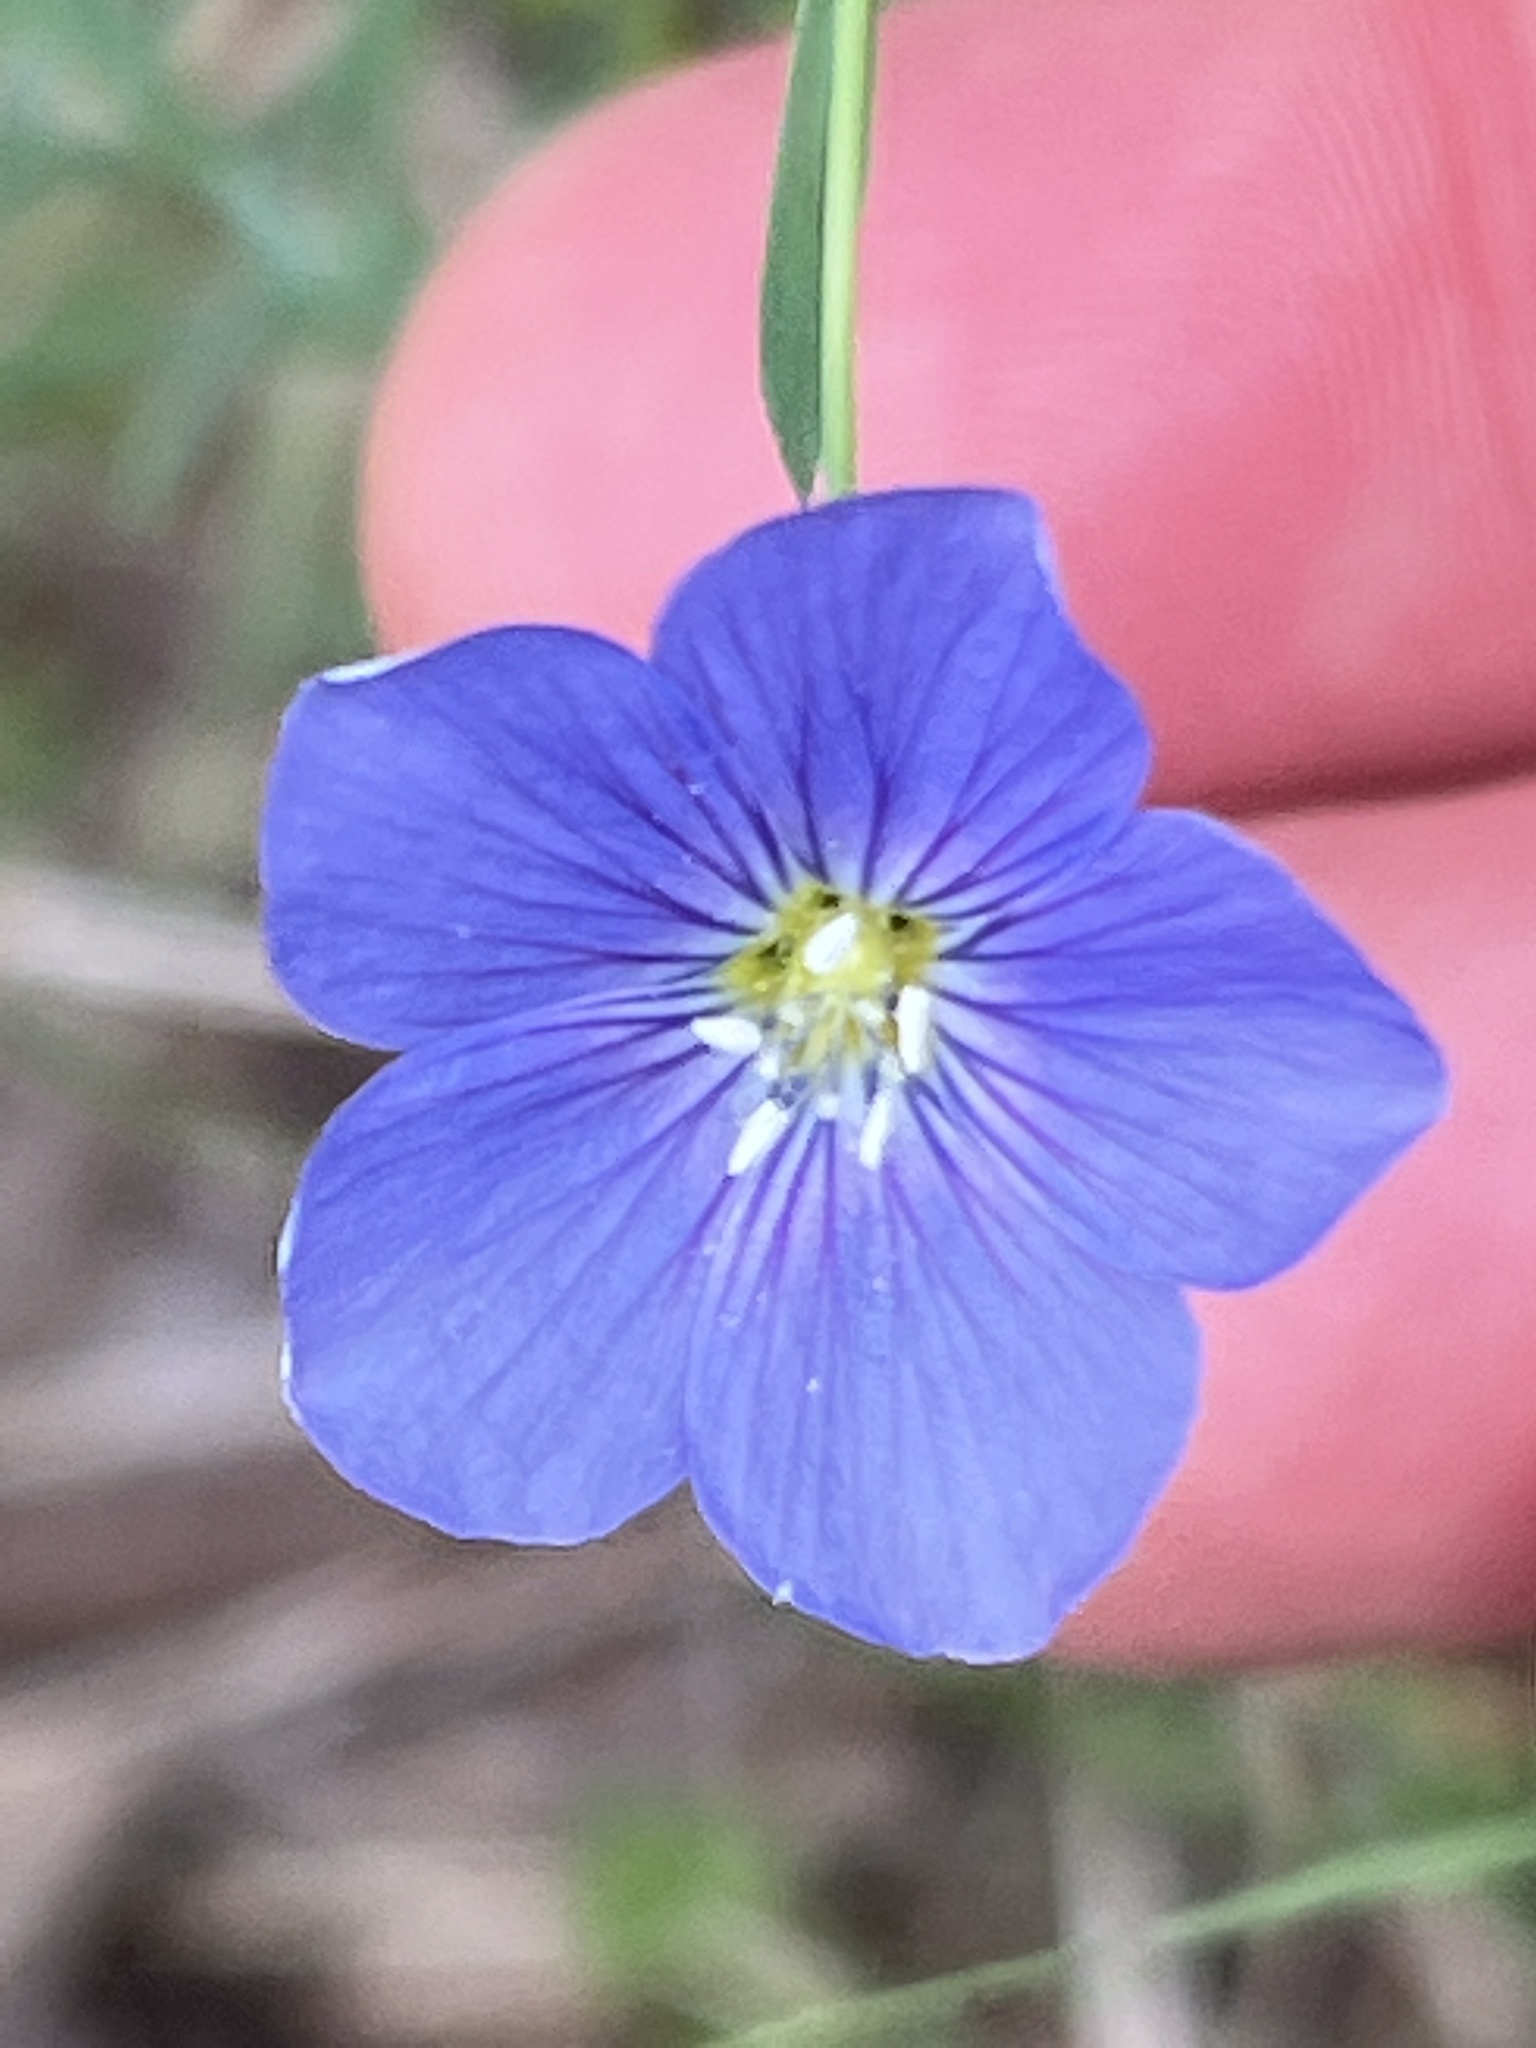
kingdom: Plantae
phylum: Tracheophyta
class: Magnoliopsida
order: Malpighiales
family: Linaceae
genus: Linum
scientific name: Linum pratense
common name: Norton's flax
